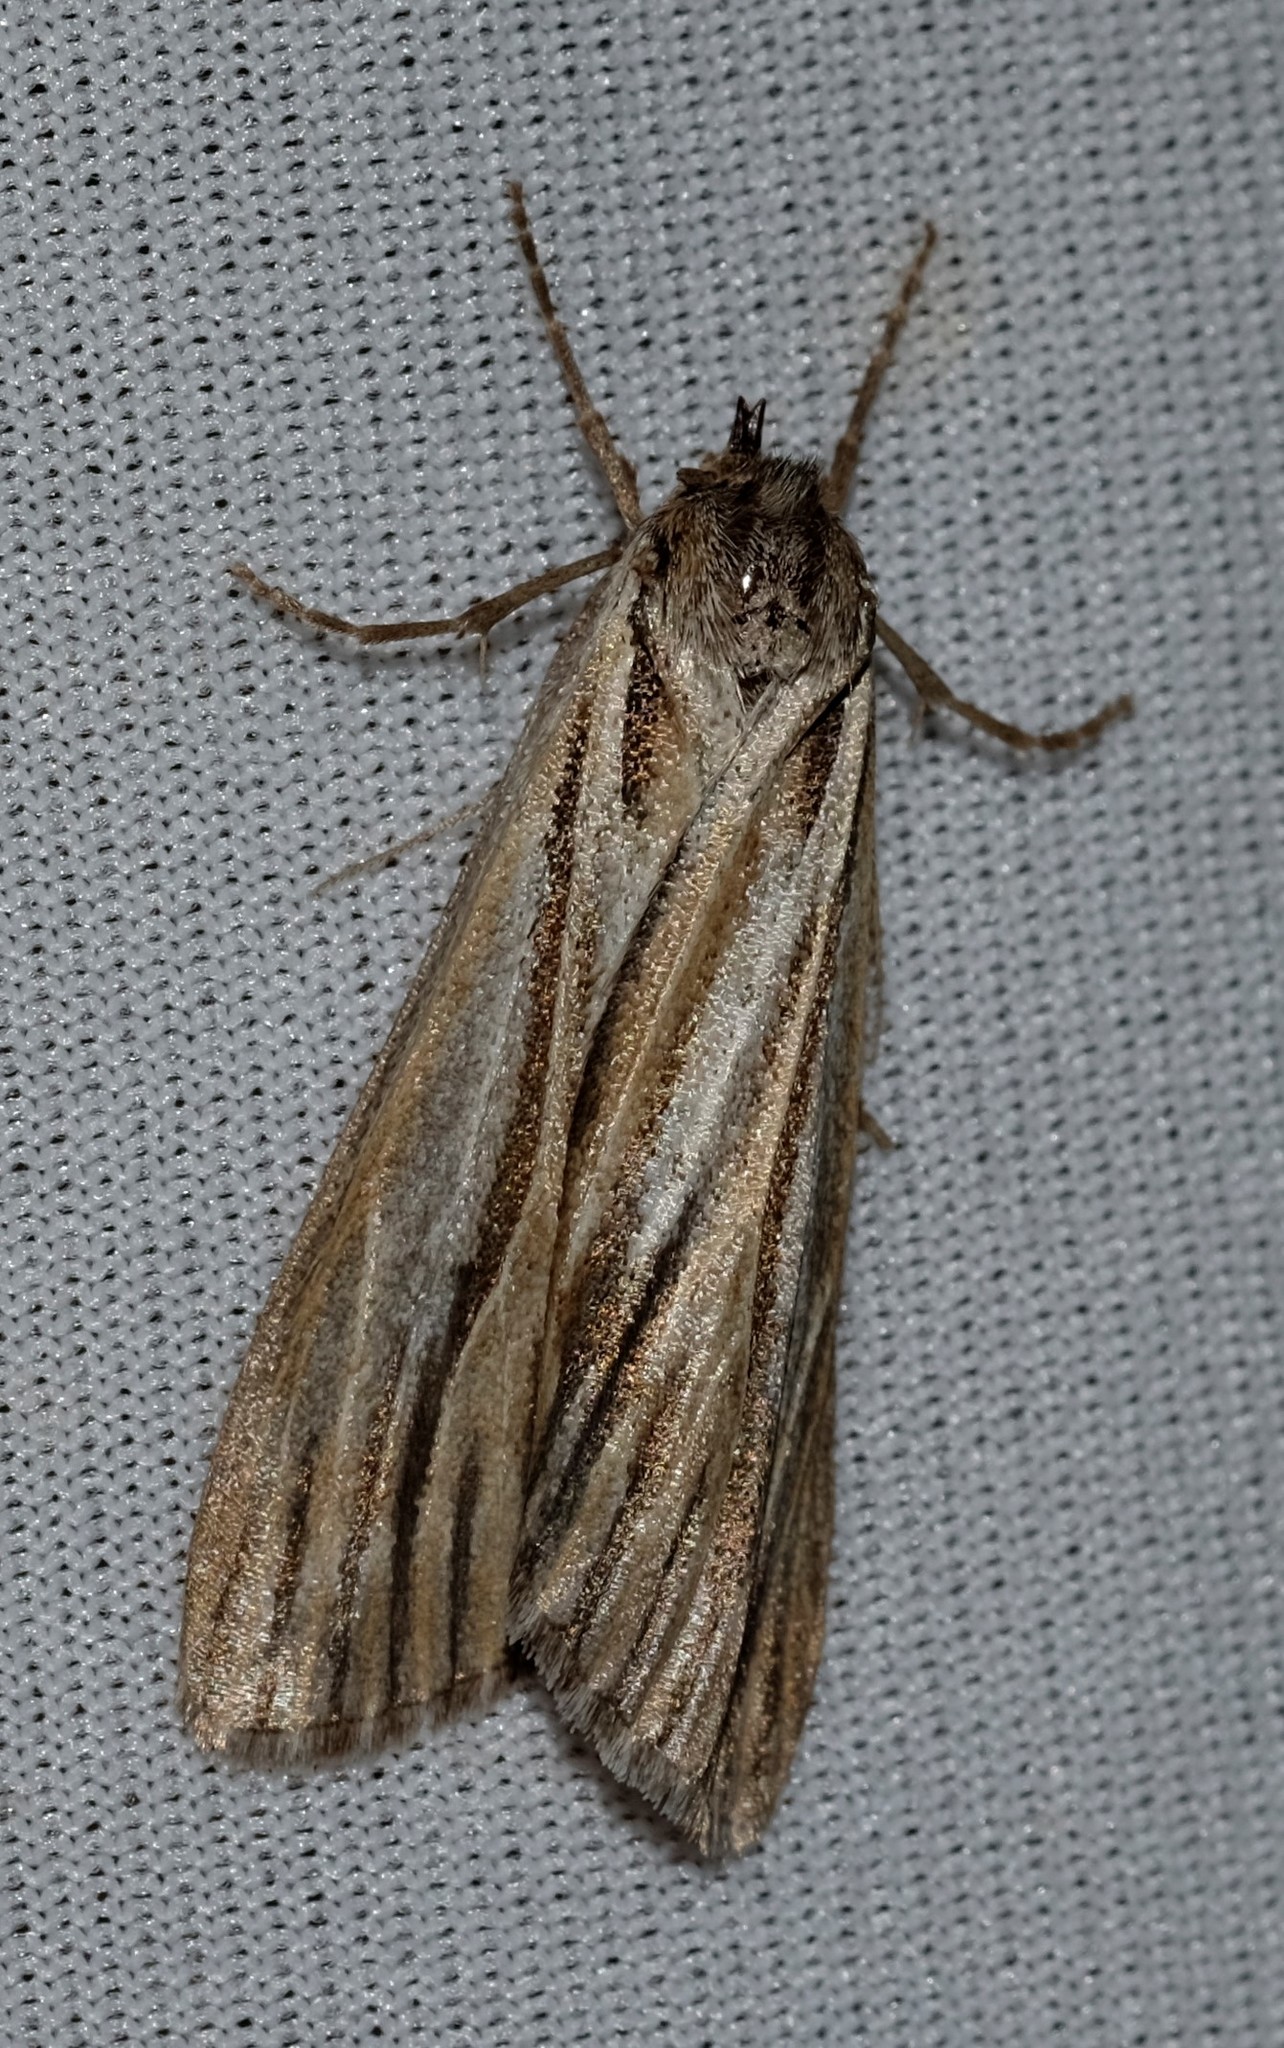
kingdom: Animalia
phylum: Arthropoda
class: Insecta
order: Lepidoptera
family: Geometridae
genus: Ciampa
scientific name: Ciampa arietaria
